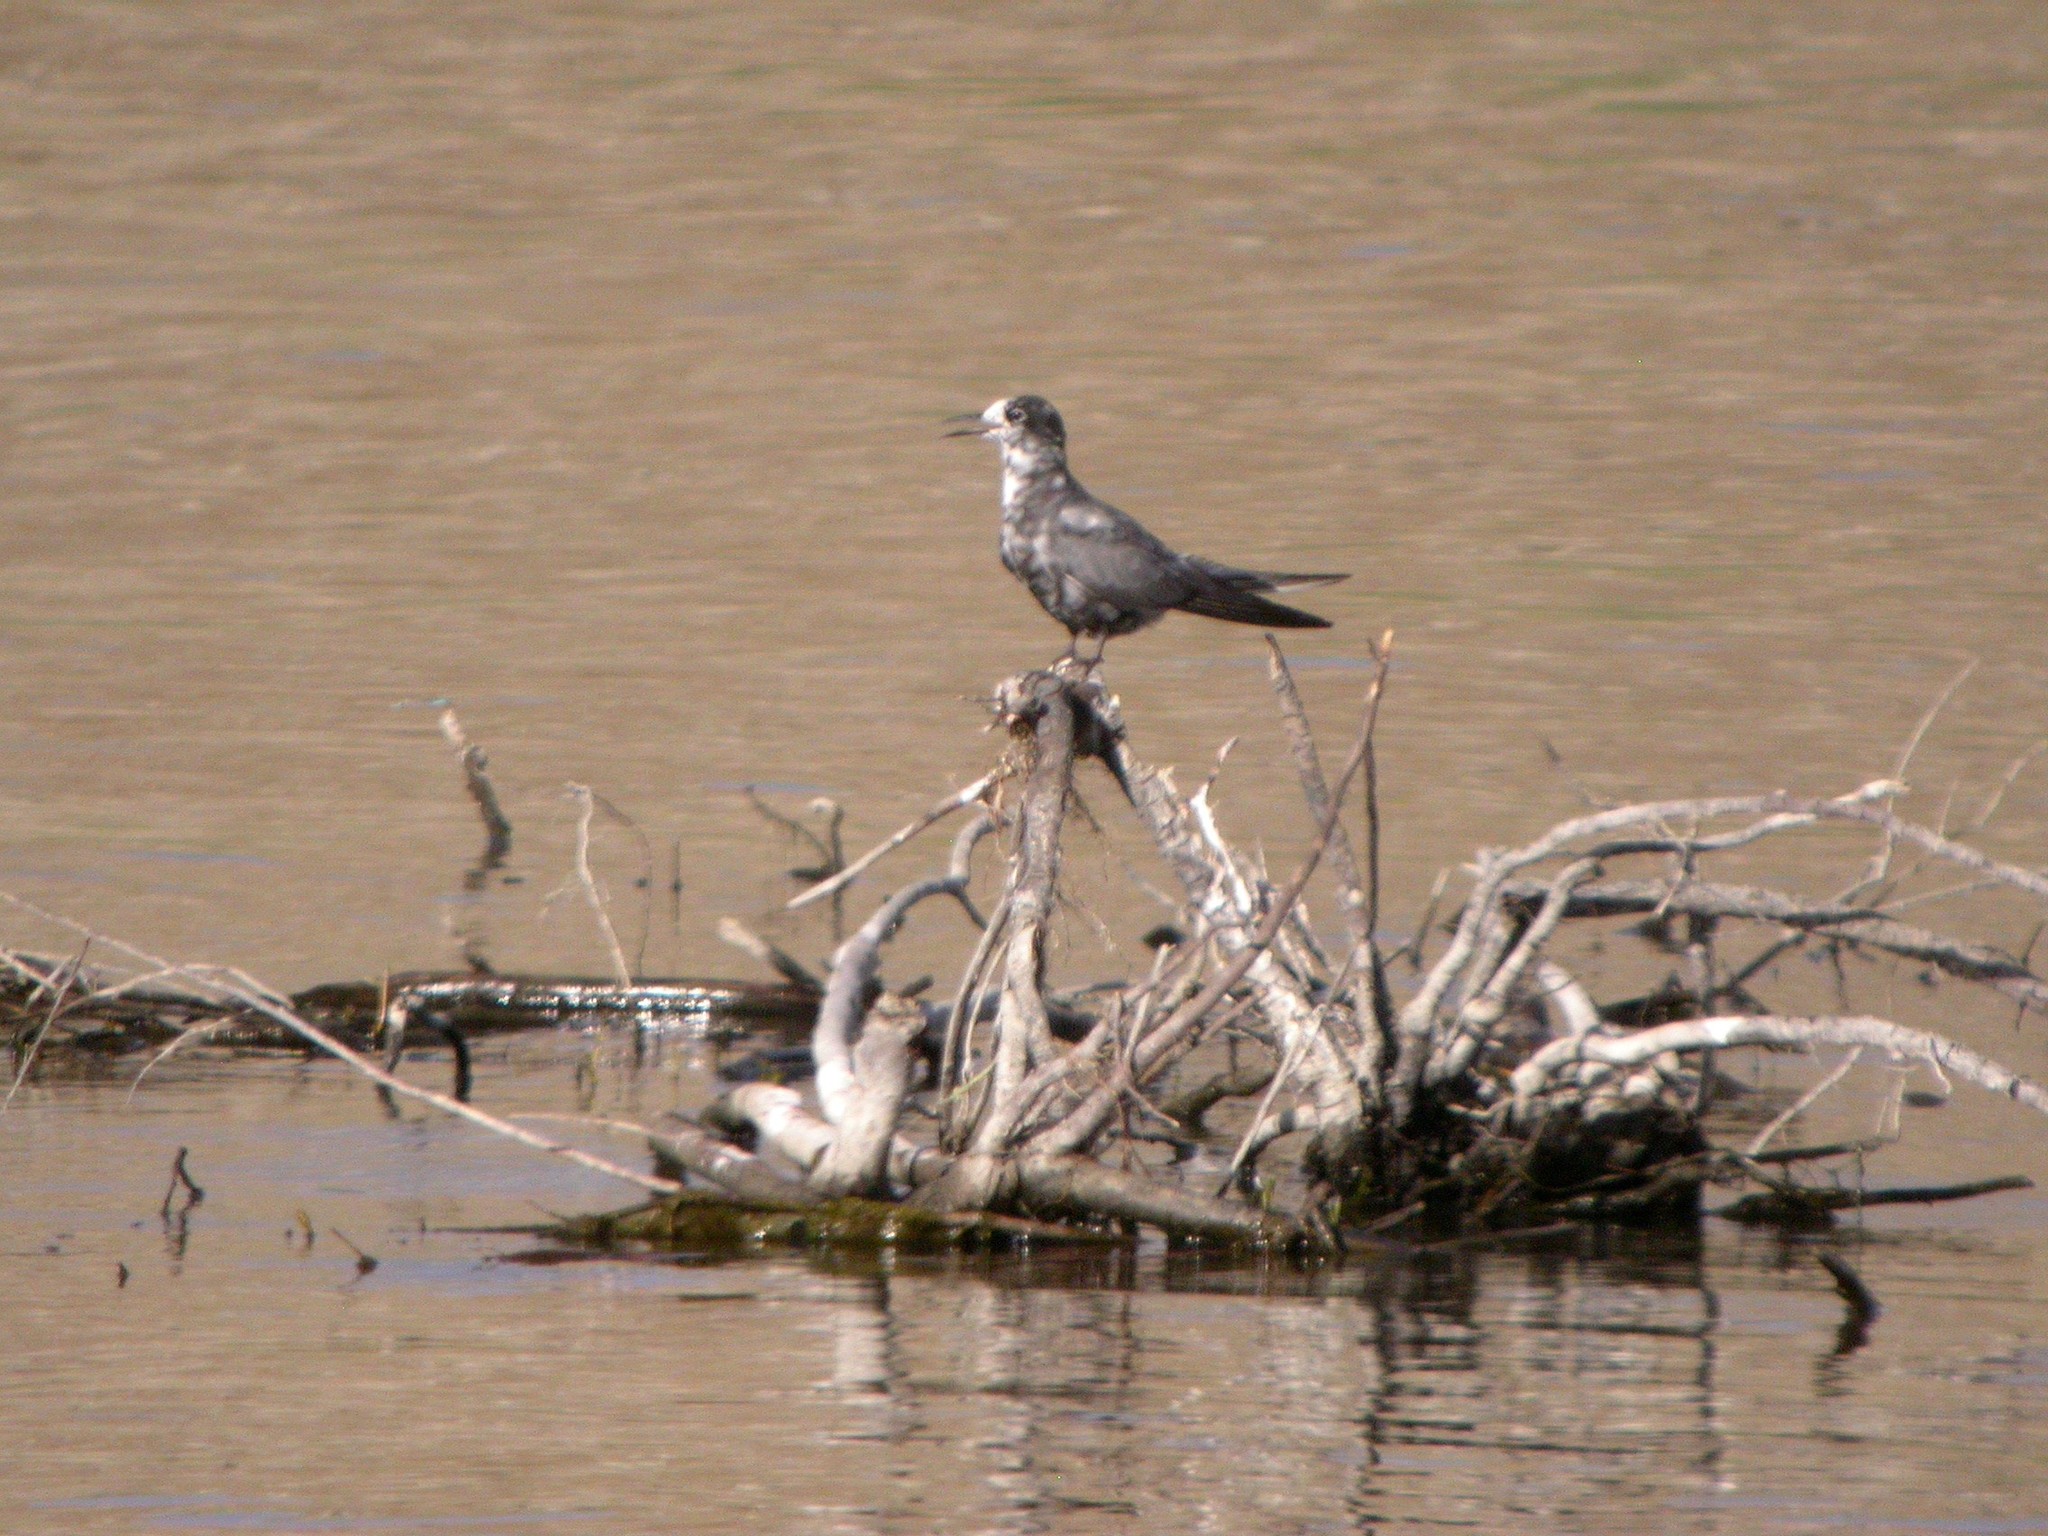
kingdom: Animalia
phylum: Chordata
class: Aves
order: Charadriiformes
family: Laridae
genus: Chlidonias
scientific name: Chlidonias niger
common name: Black tern
